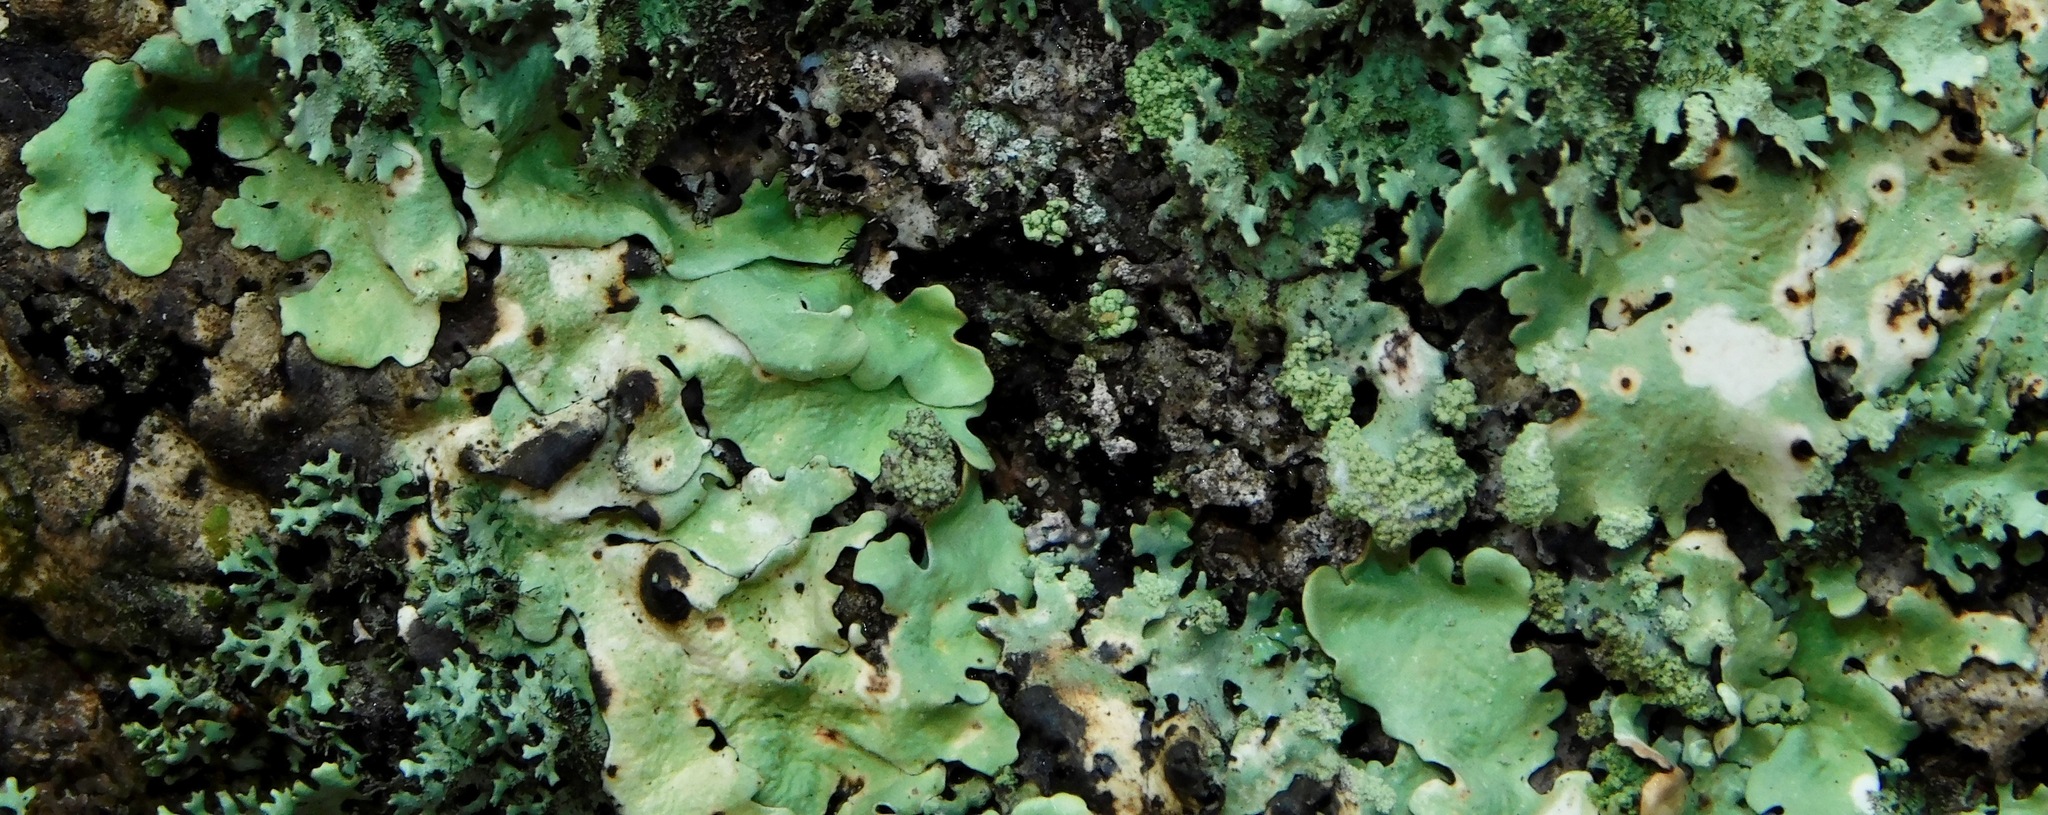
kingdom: Fungi
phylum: Basidiomycota
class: Tremellomycetes
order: Tremellales
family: Tremellaceae
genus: Tremella
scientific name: Tremella flavoparmeliae
